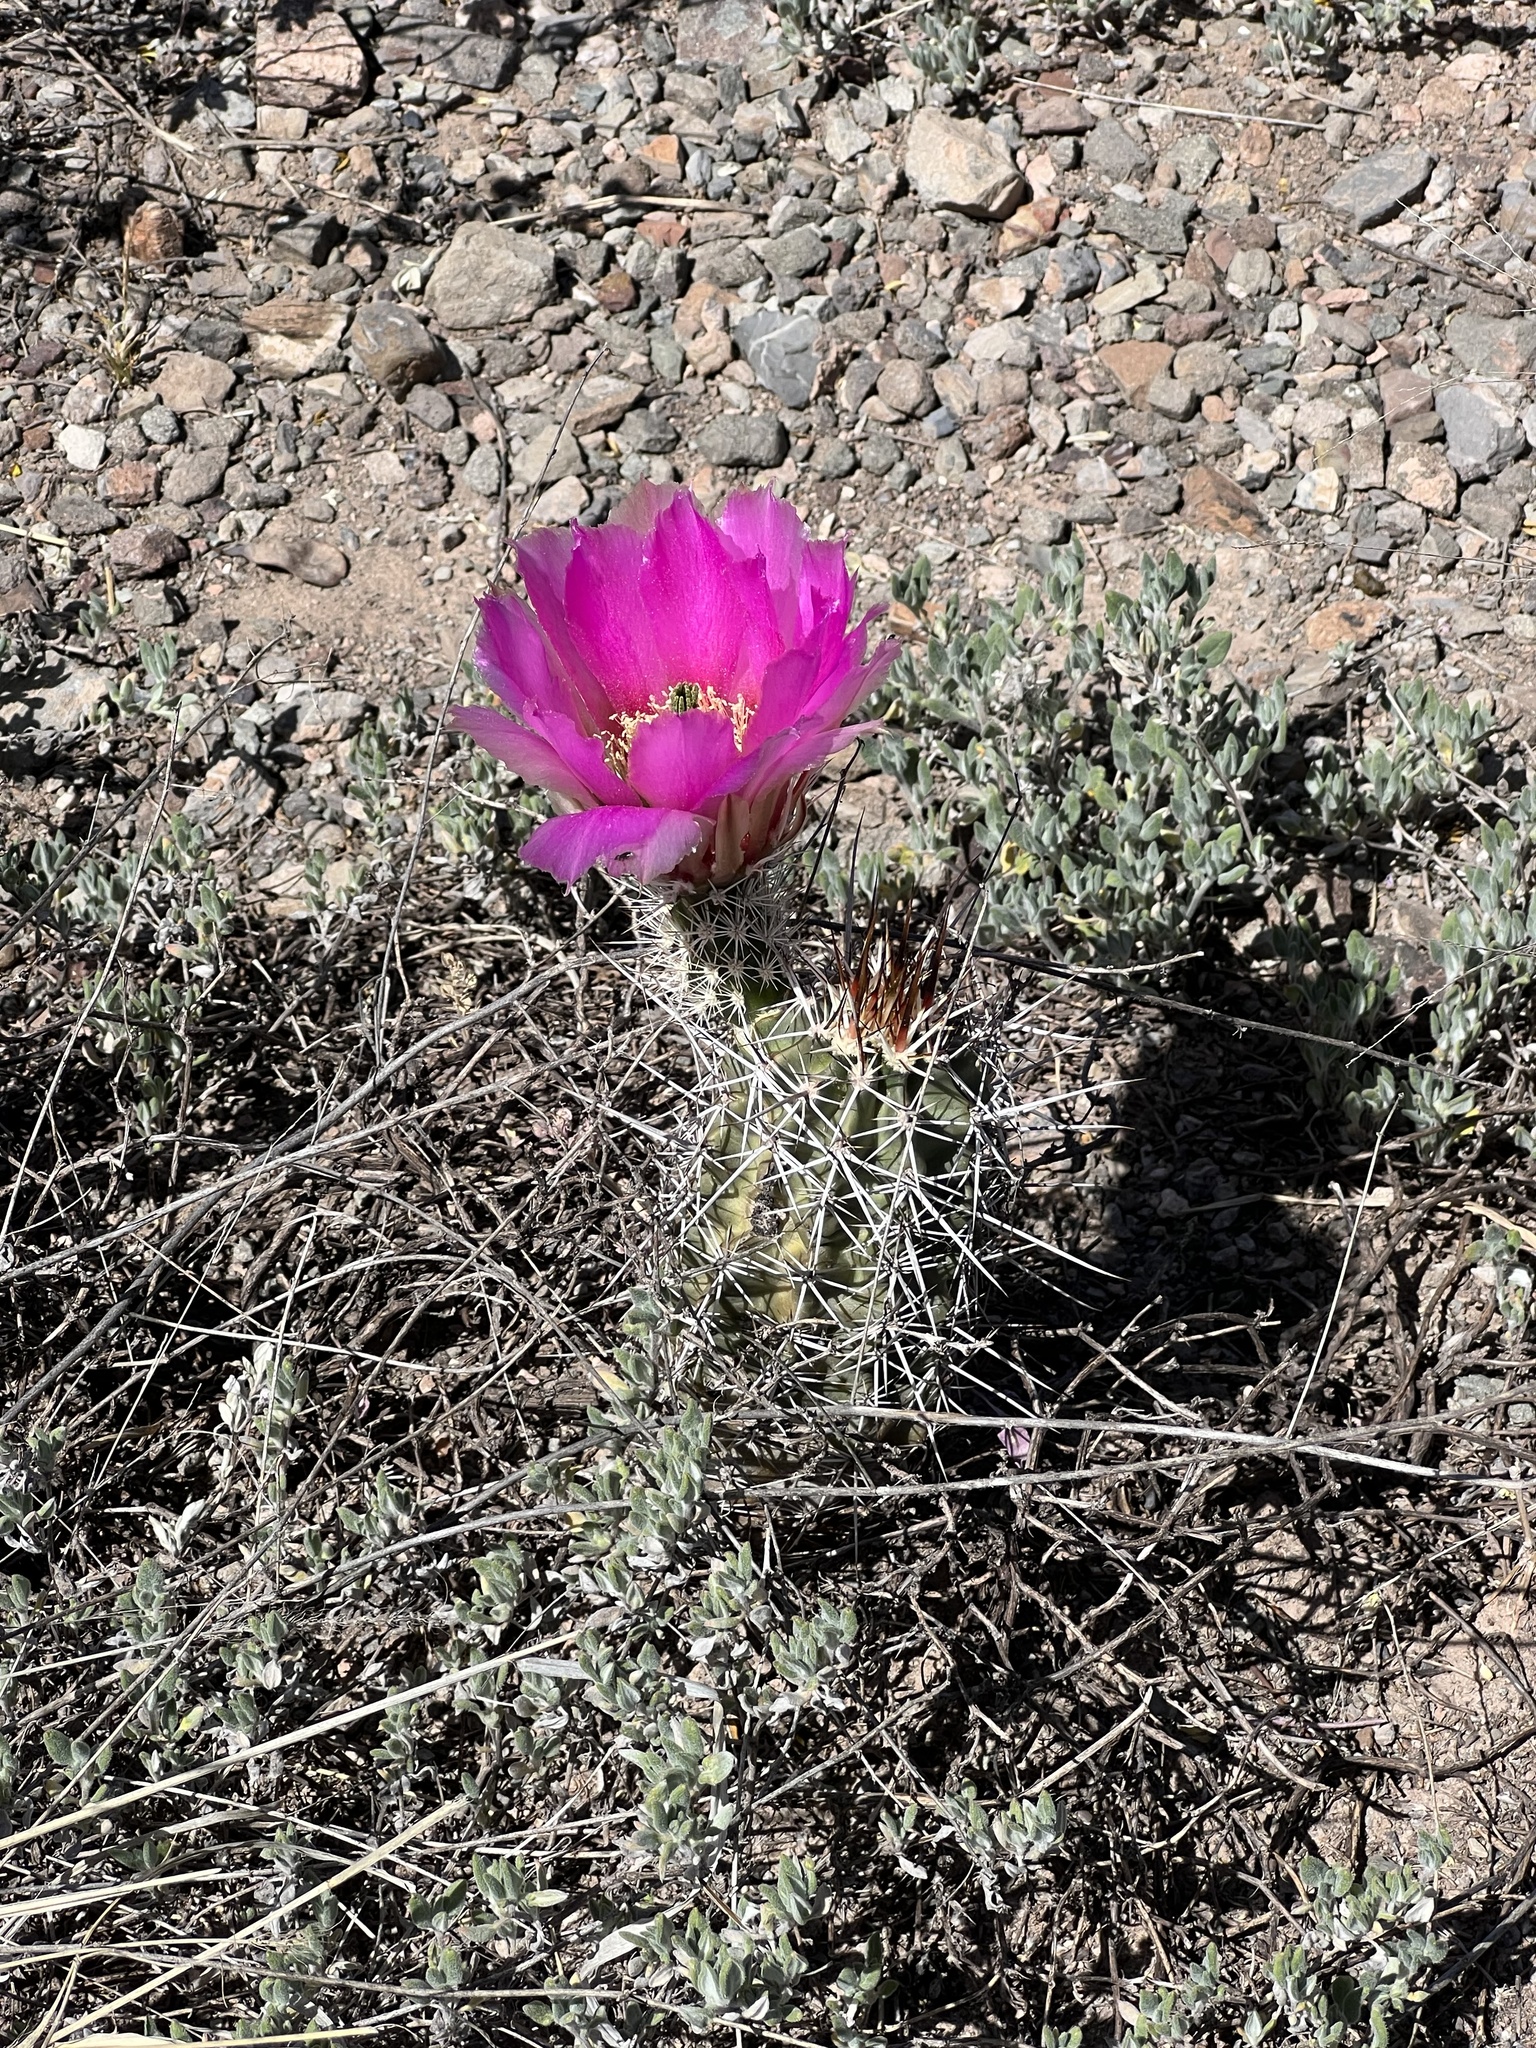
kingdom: Plantae
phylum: Tracheophyta
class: Magnoliopsida
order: Caryophyllales
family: Cactaceae
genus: Echinocereus
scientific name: Echinocereus fasciculatus
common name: Bundle hedgehog
